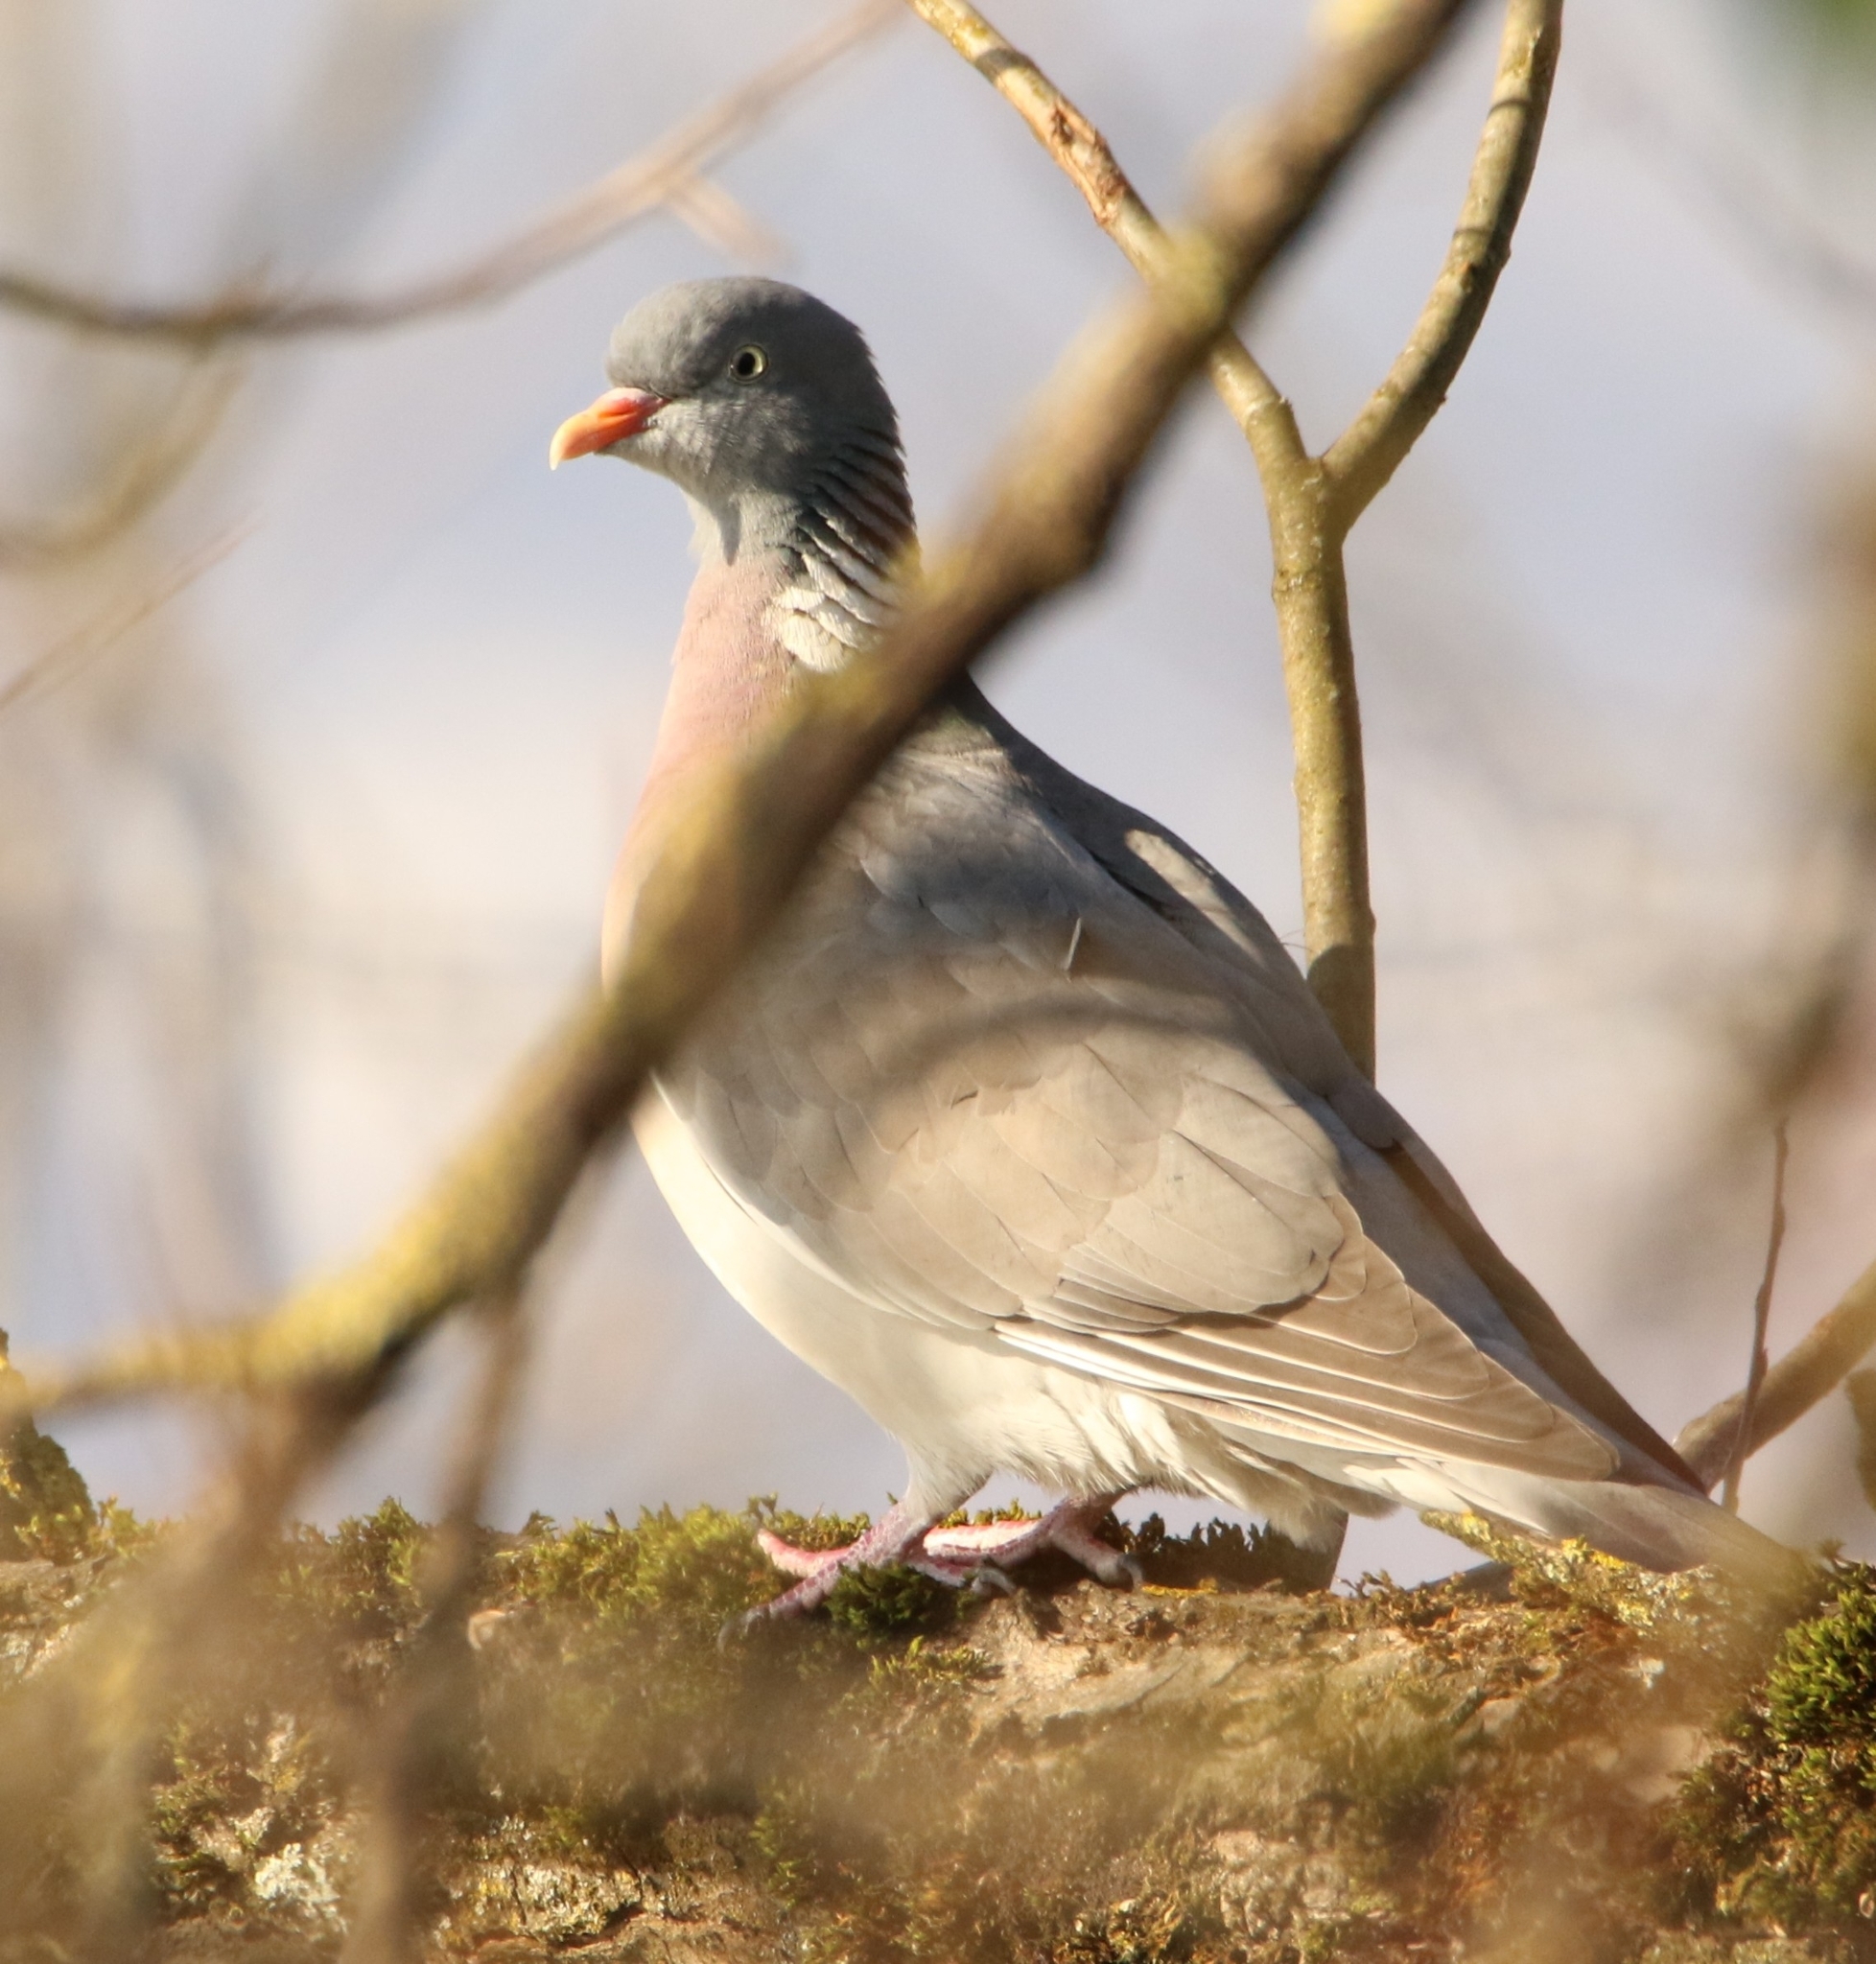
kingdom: Animalia
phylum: Chordata
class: Aves
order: Columbiformes
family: Columbidae
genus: Columba
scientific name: Columba palumbus
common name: Common wood pigeon
